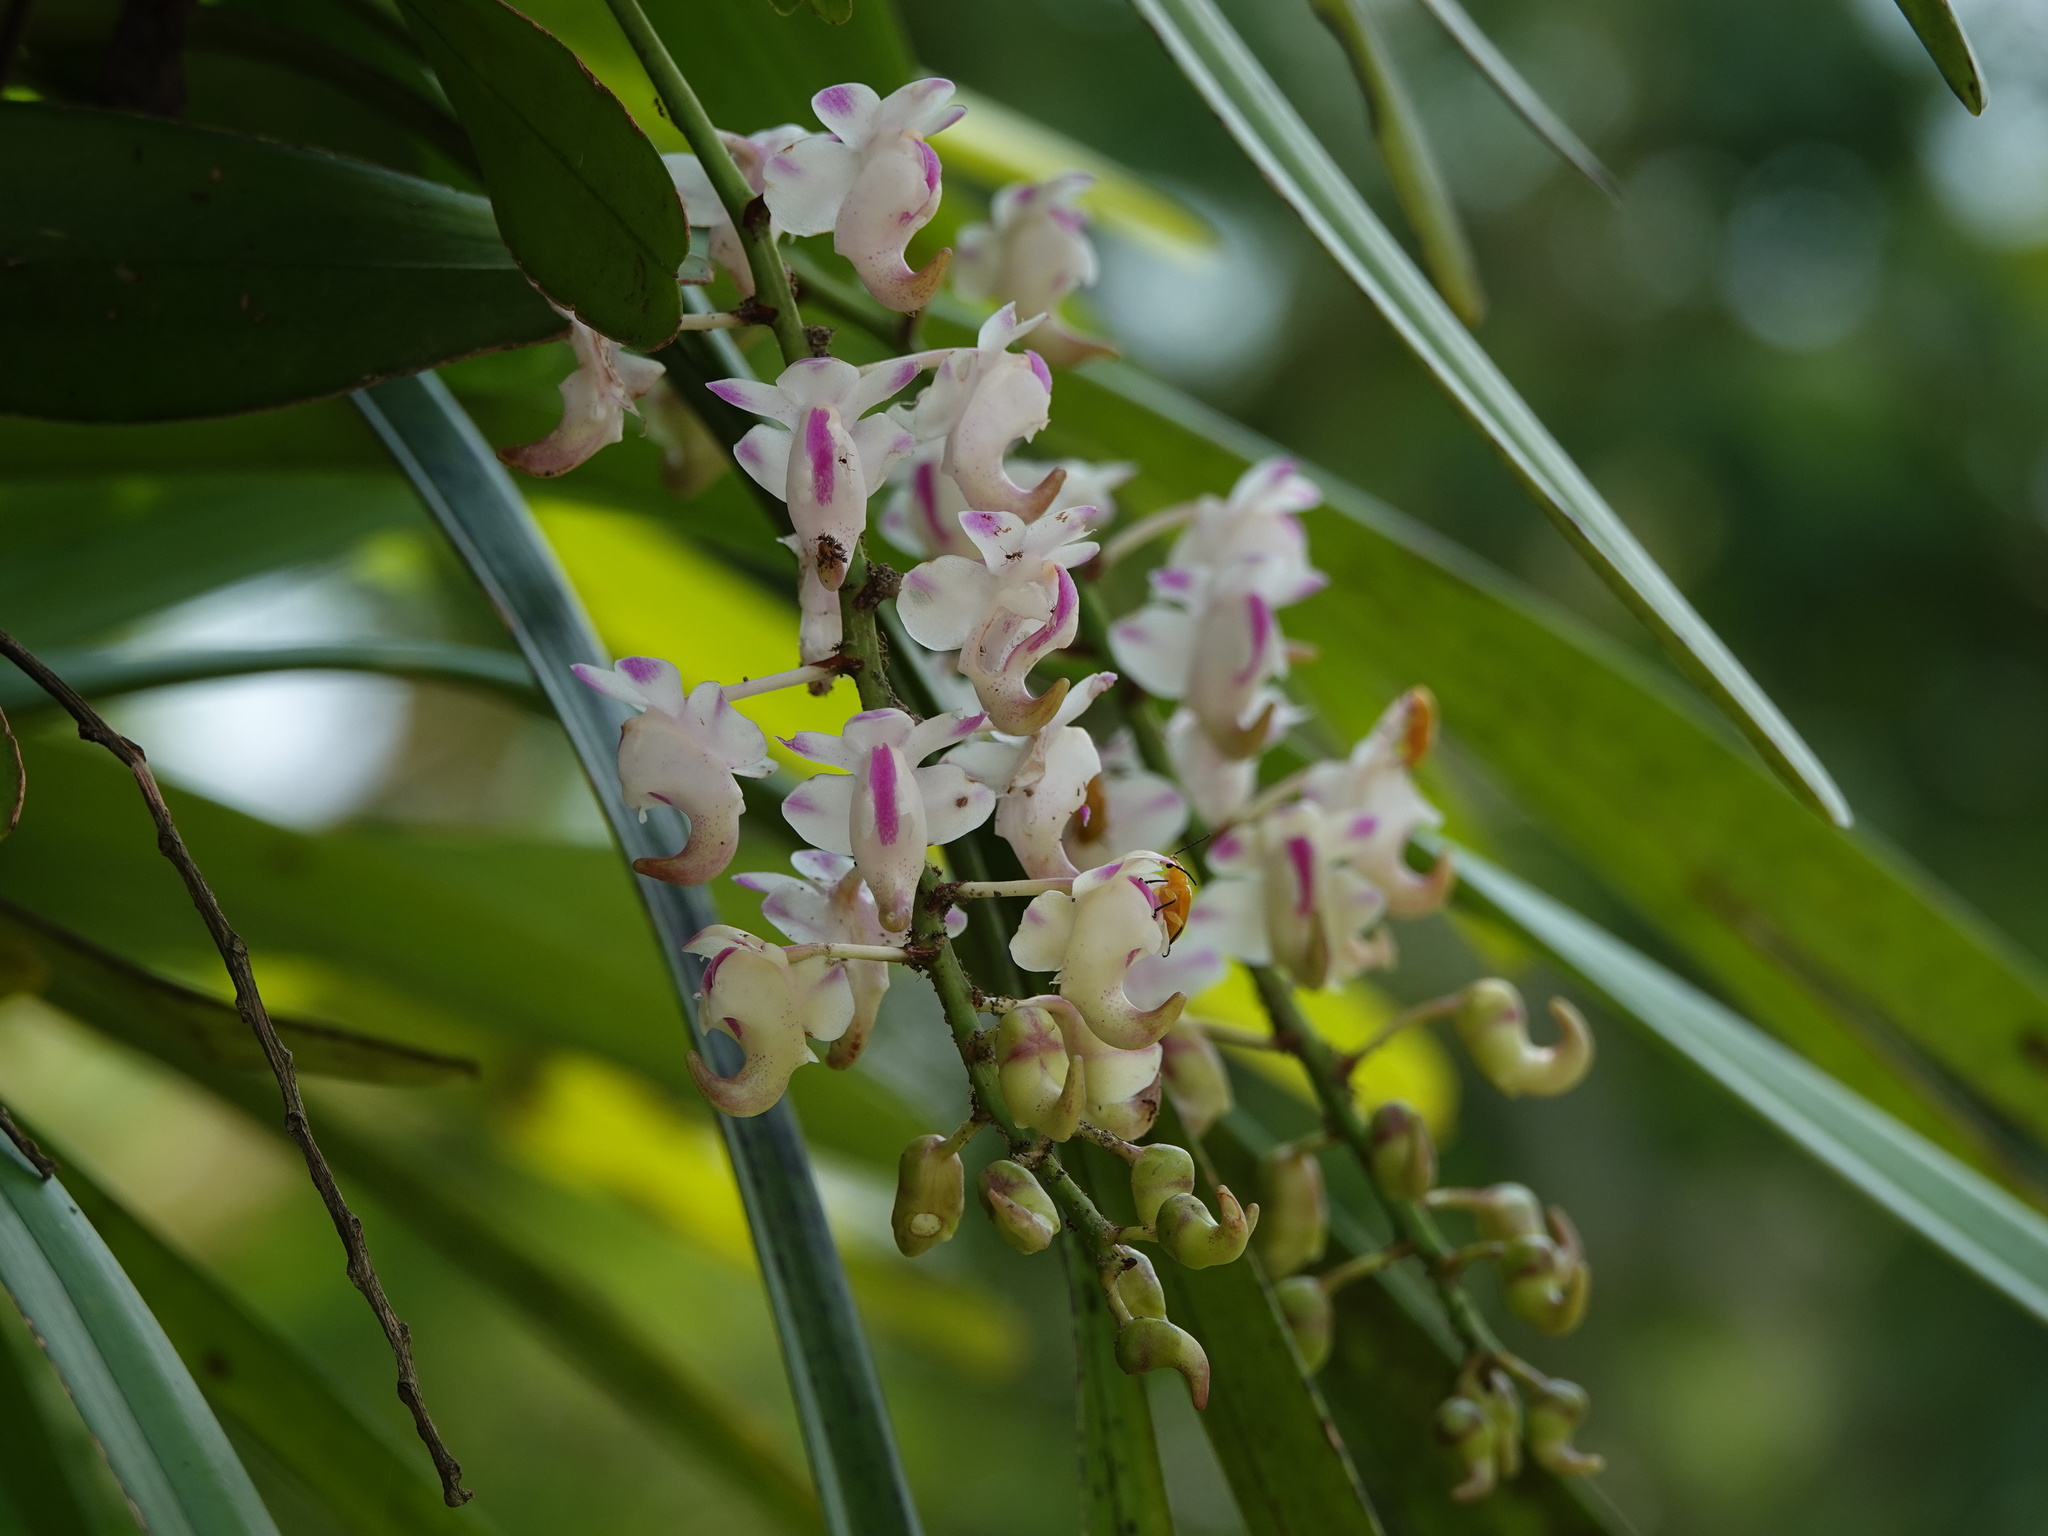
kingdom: Plantae
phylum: Tracheophyta
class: Liliopsida
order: Asparagales
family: Orchidaceae
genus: Aerides
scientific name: Aerides odorata
